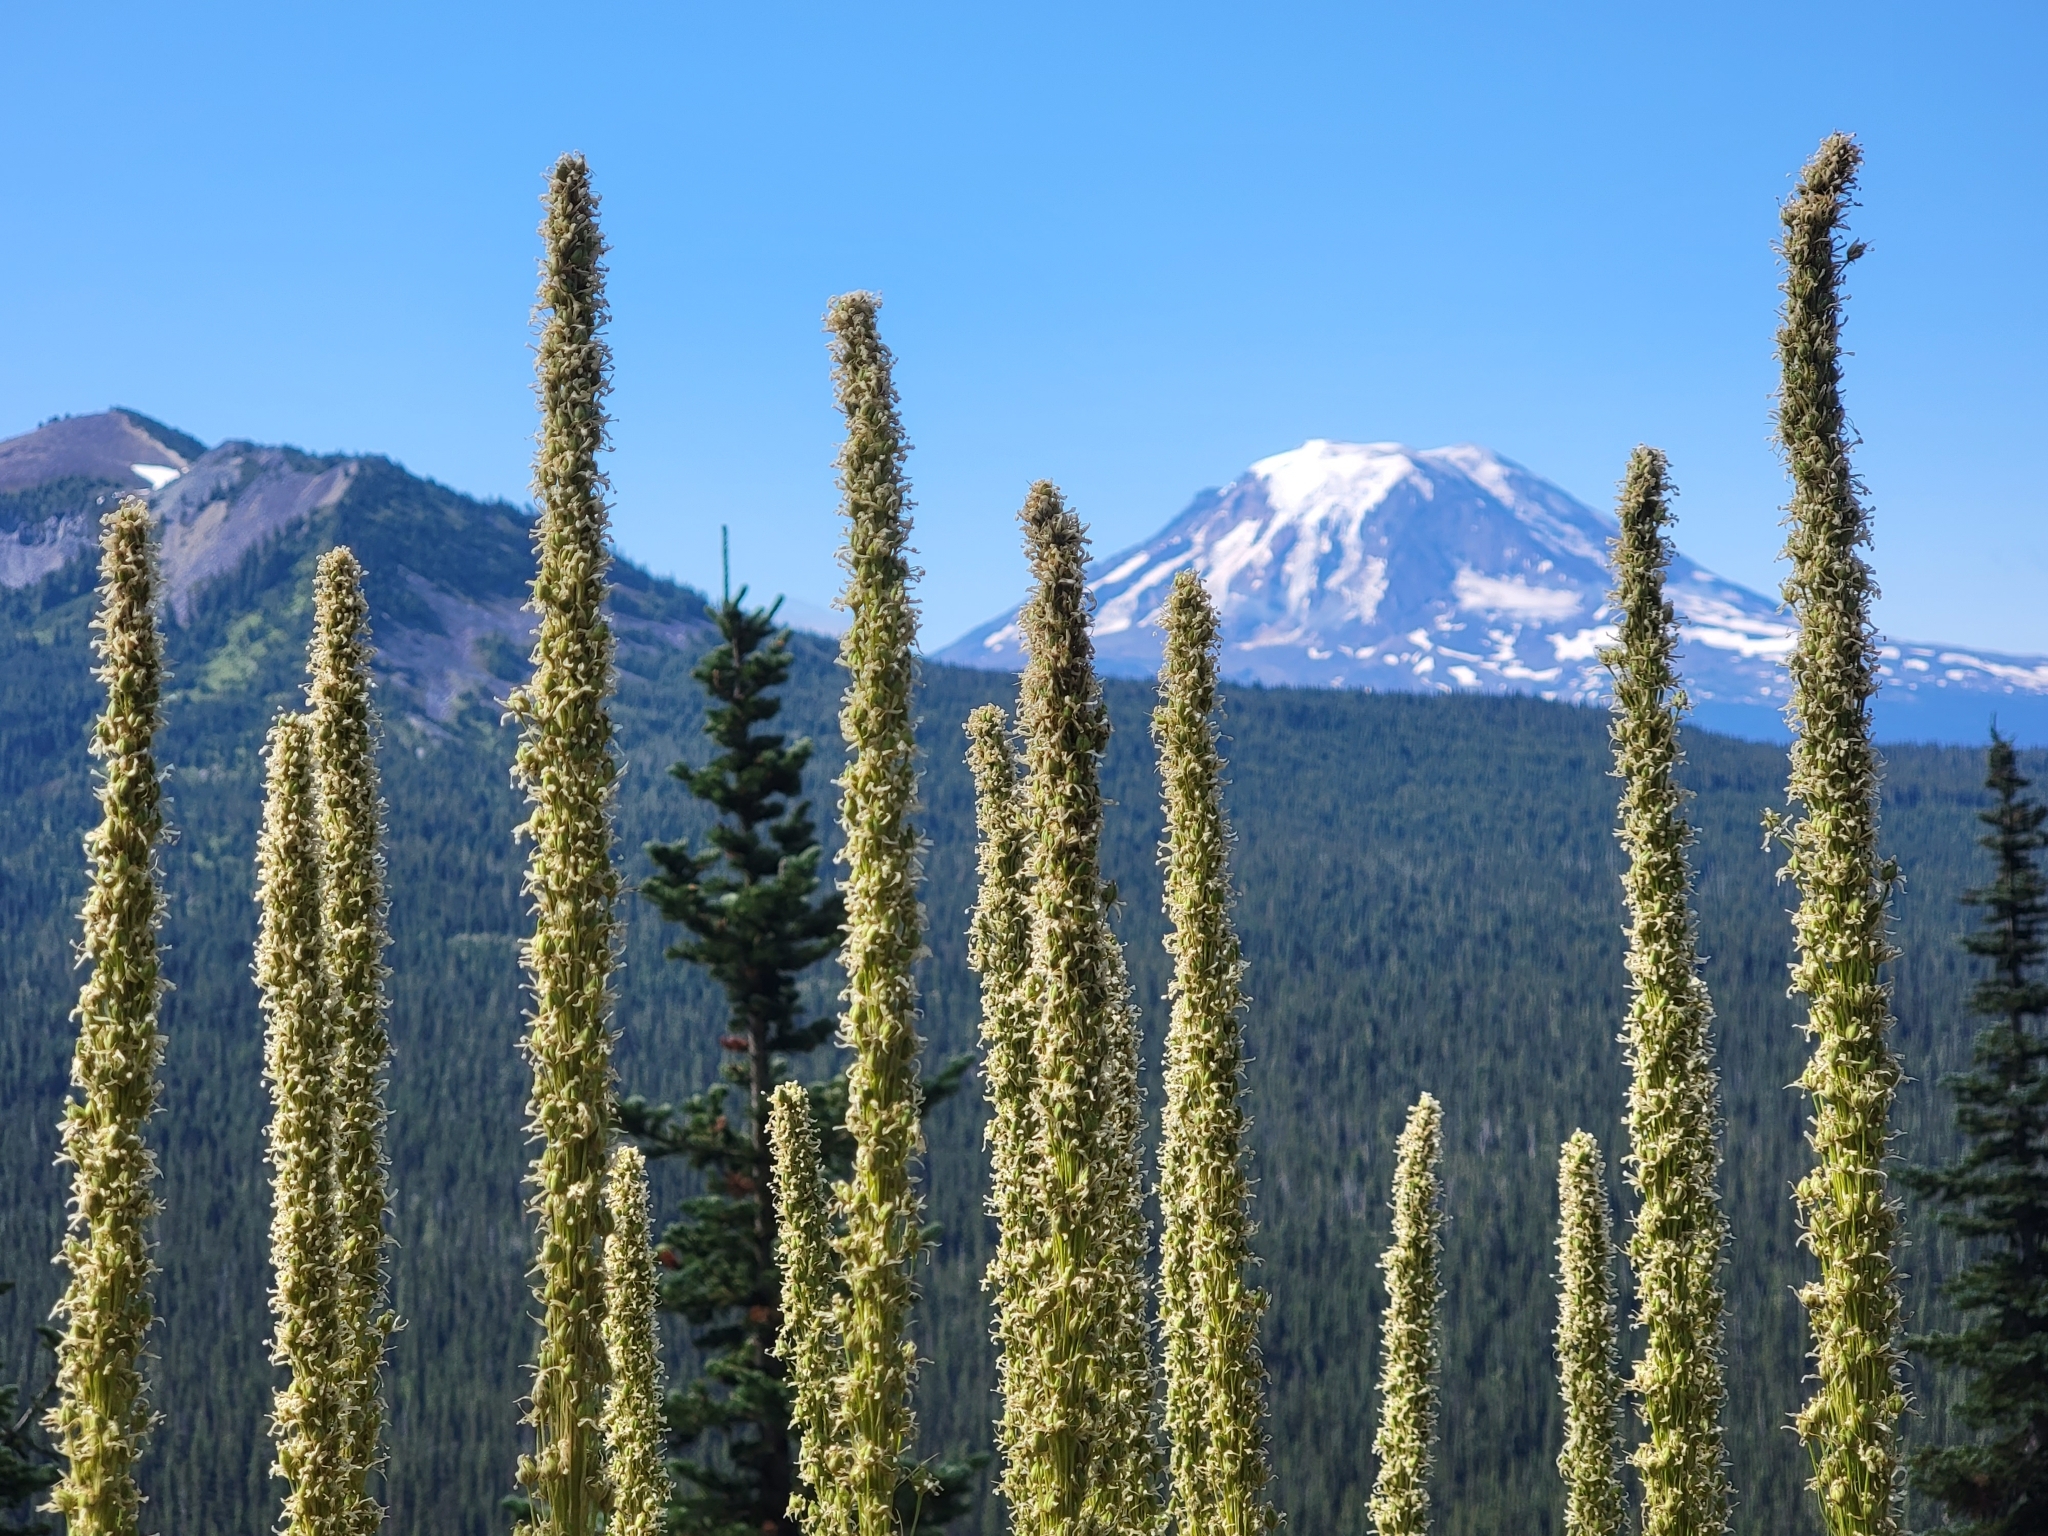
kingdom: Plantae
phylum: Tracheophyta
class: Liliopsida
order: Liliales
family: Melanthiaceae
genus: Xerophyllum
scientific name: Xerophyllum tenax
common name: Bear-grass
